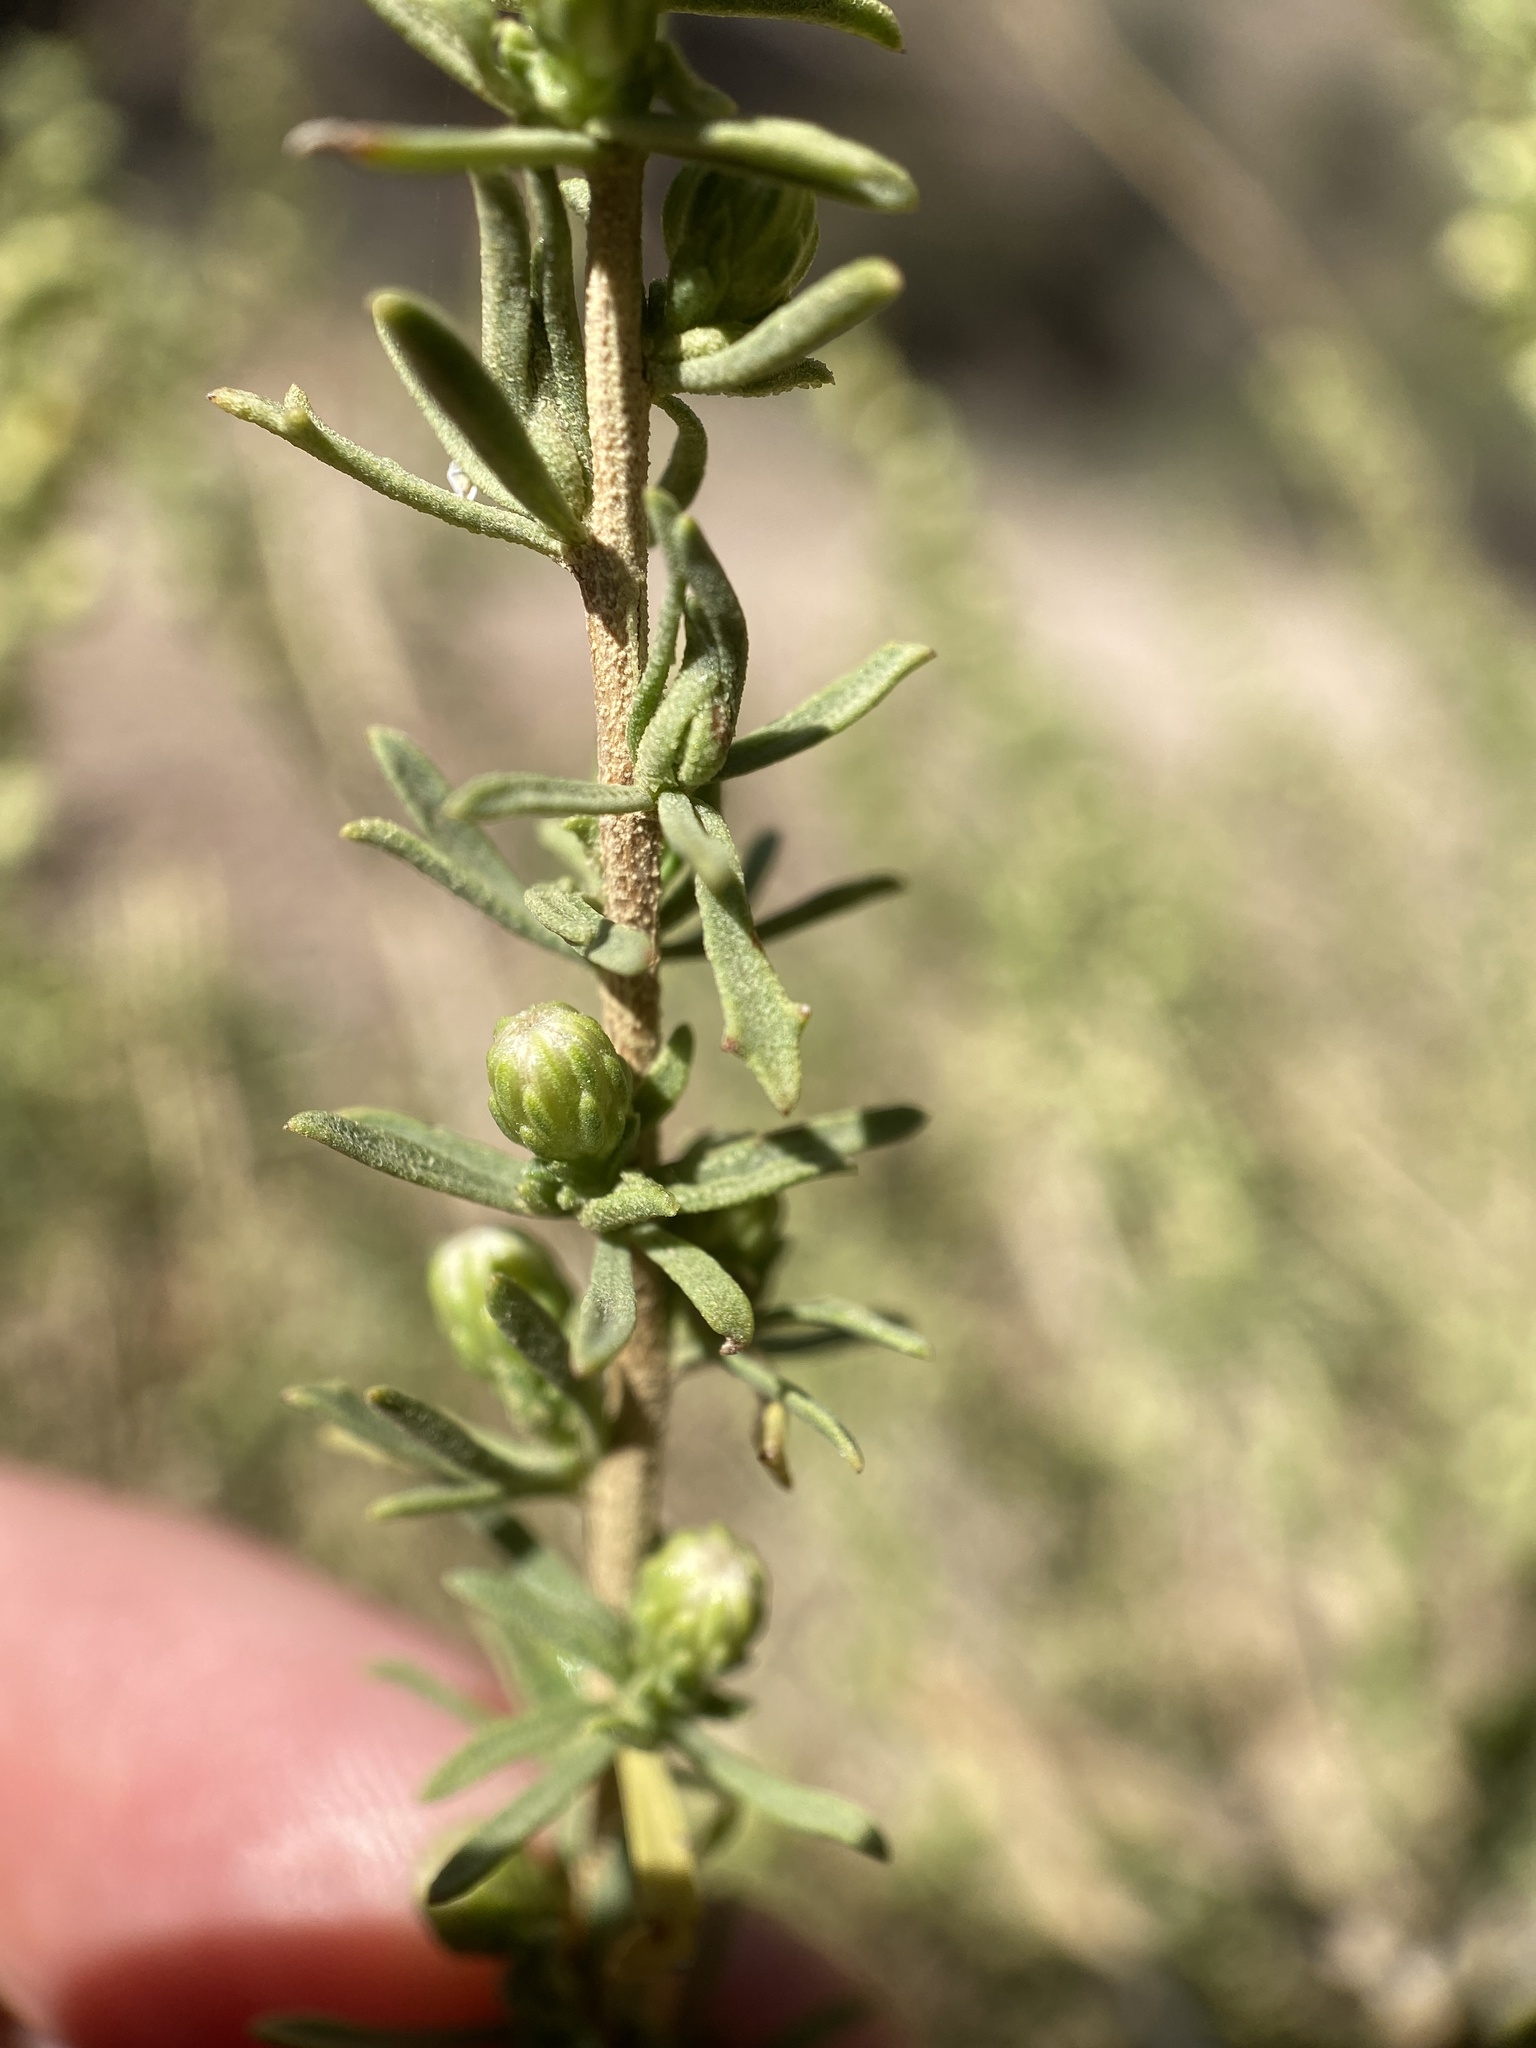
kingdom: Plantae
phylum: Tracheophyta
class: Magnoliopsida
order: Asterales
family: Asteraceae
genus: Baccharis
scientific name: Baccharis pteronioides
